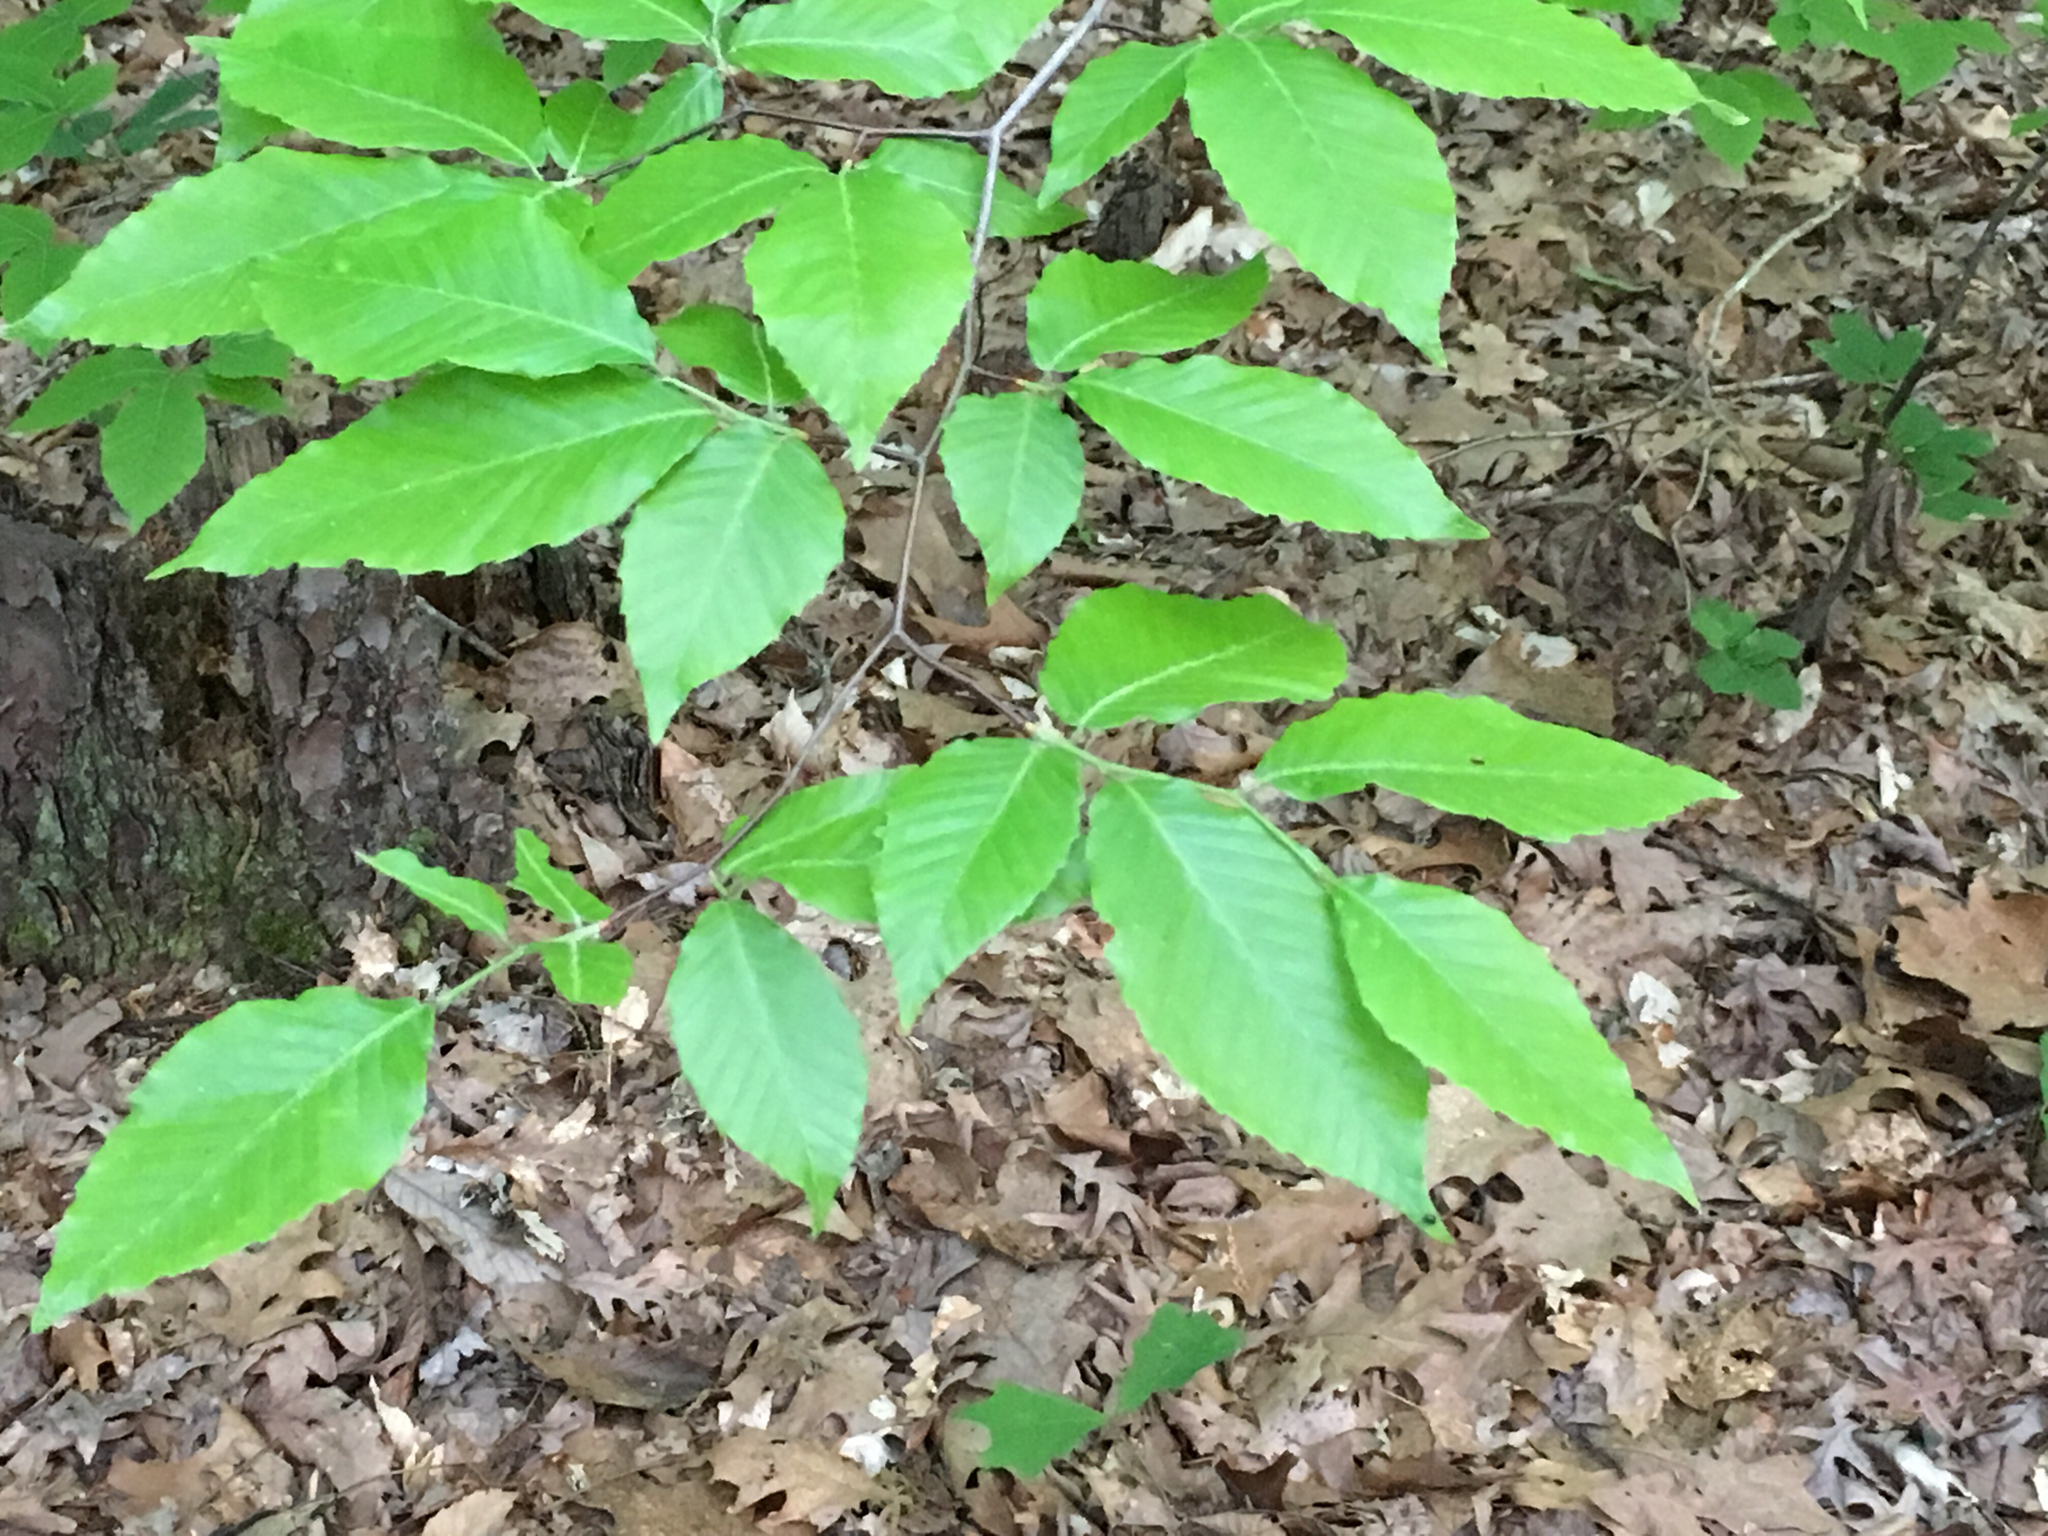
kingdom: Plantae
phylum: Tracheophyta
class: Magnoliopsida
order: Fagales
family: Fagaceae
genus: Fagus
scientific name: Fagus grandifolia
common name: American beech
